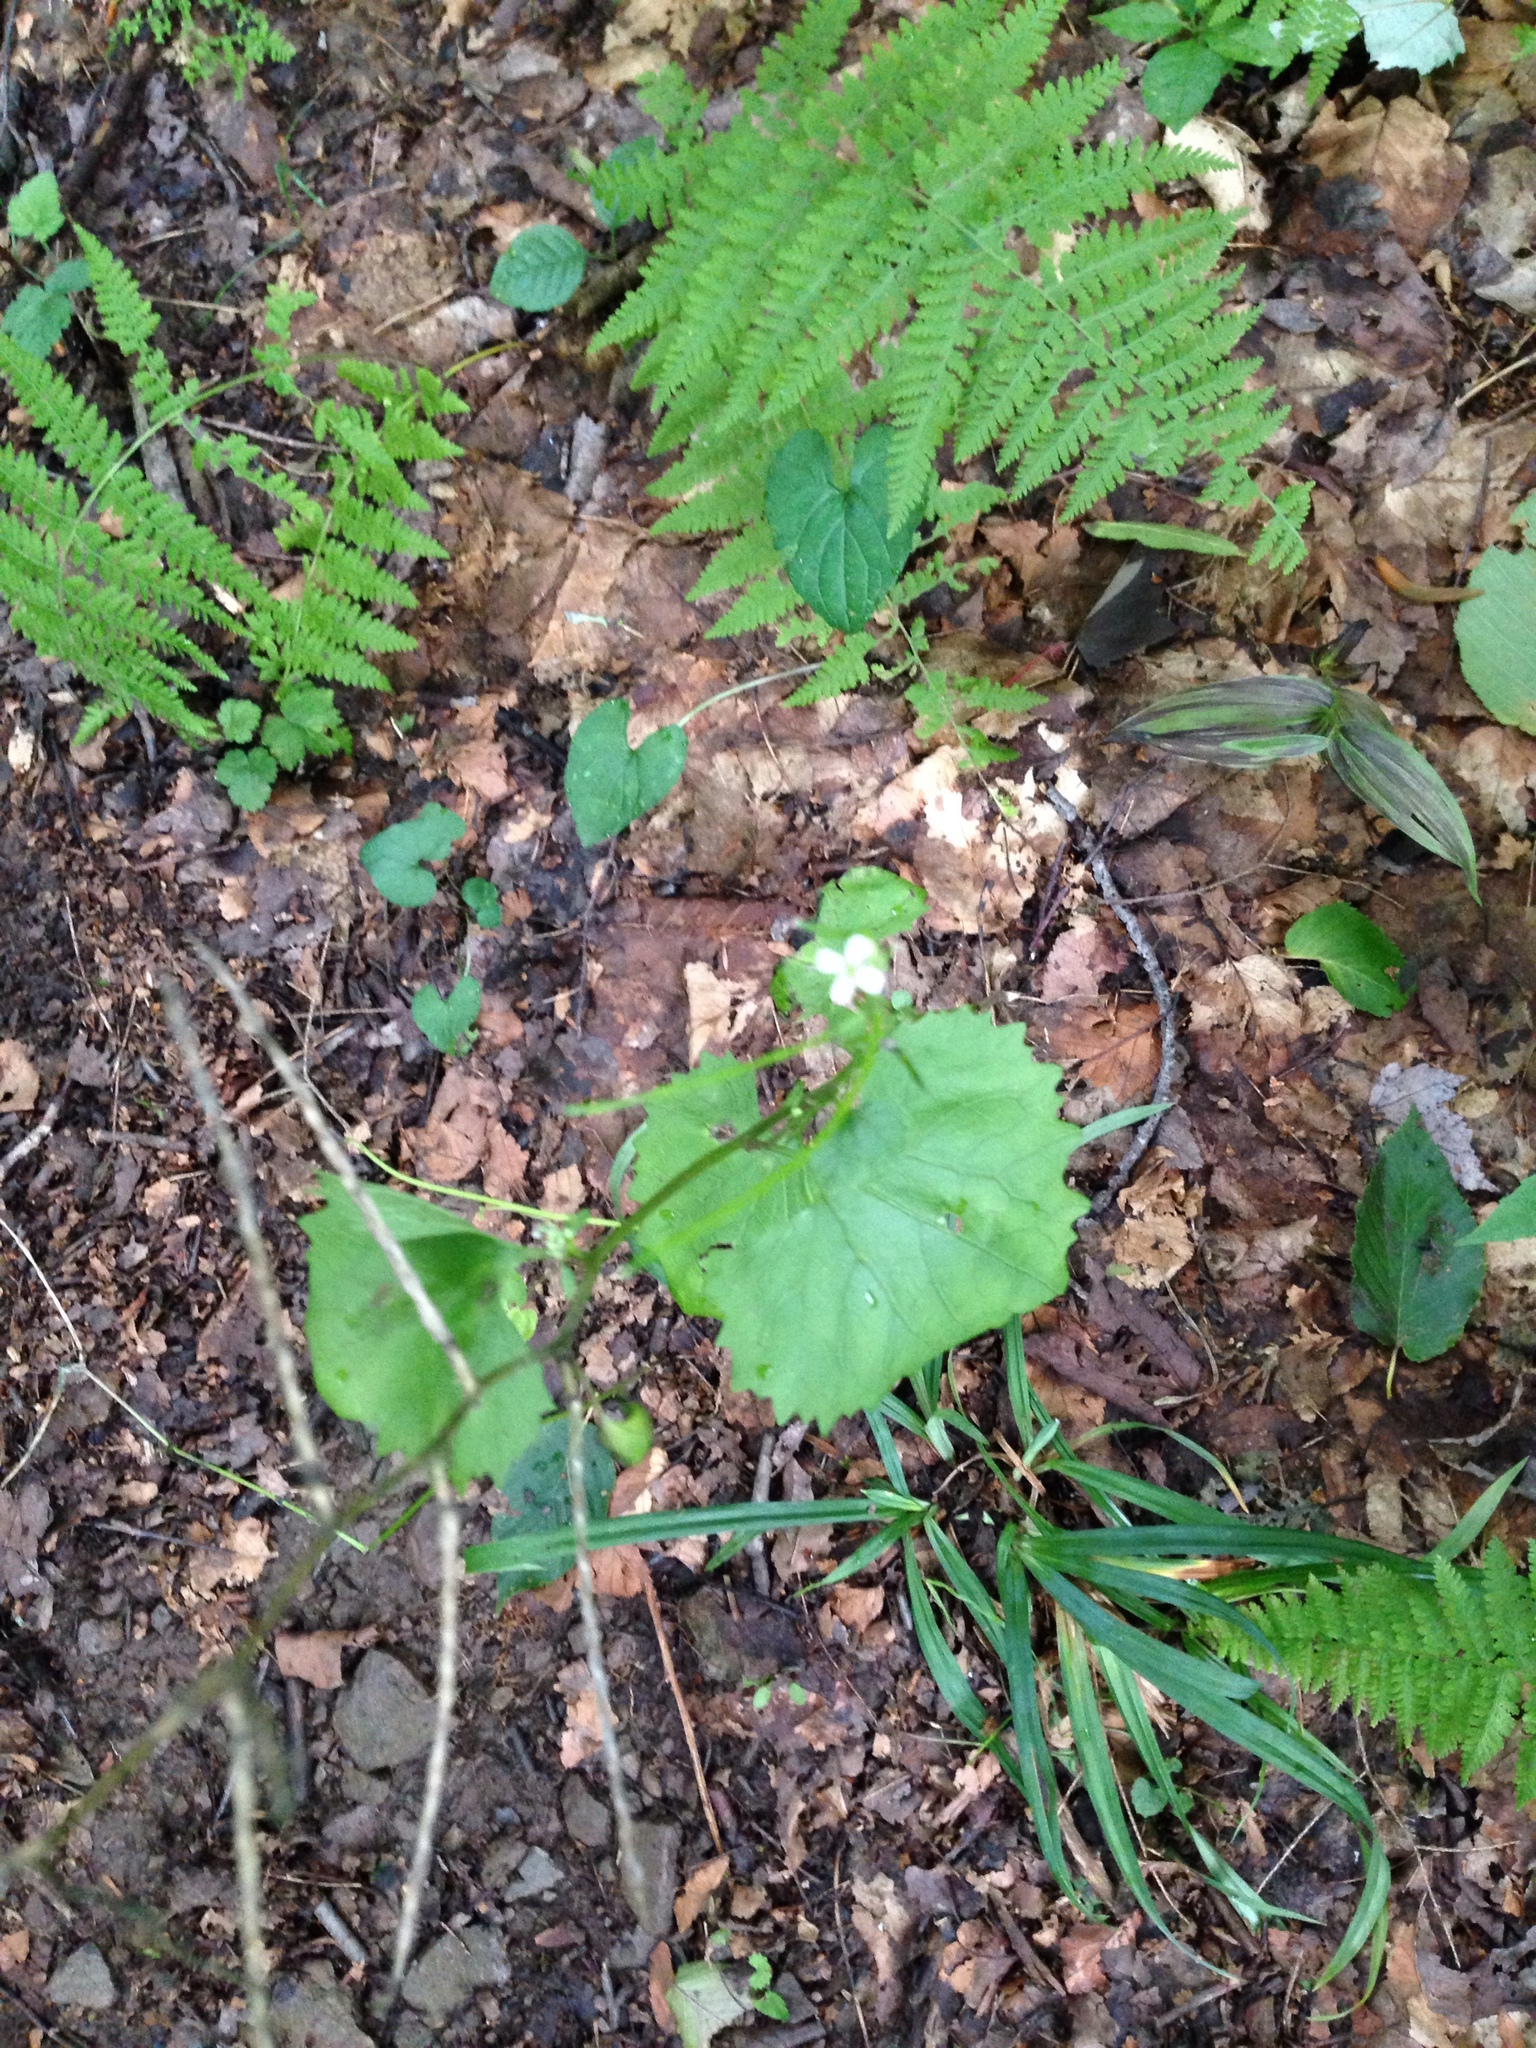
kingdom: Plantae
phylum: Tracheophyta
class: Magnoliopsida
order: Brassicales
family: Brassicaceae
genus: Alliaria
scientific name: Alliaria petiolata
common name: Garlic mustard
